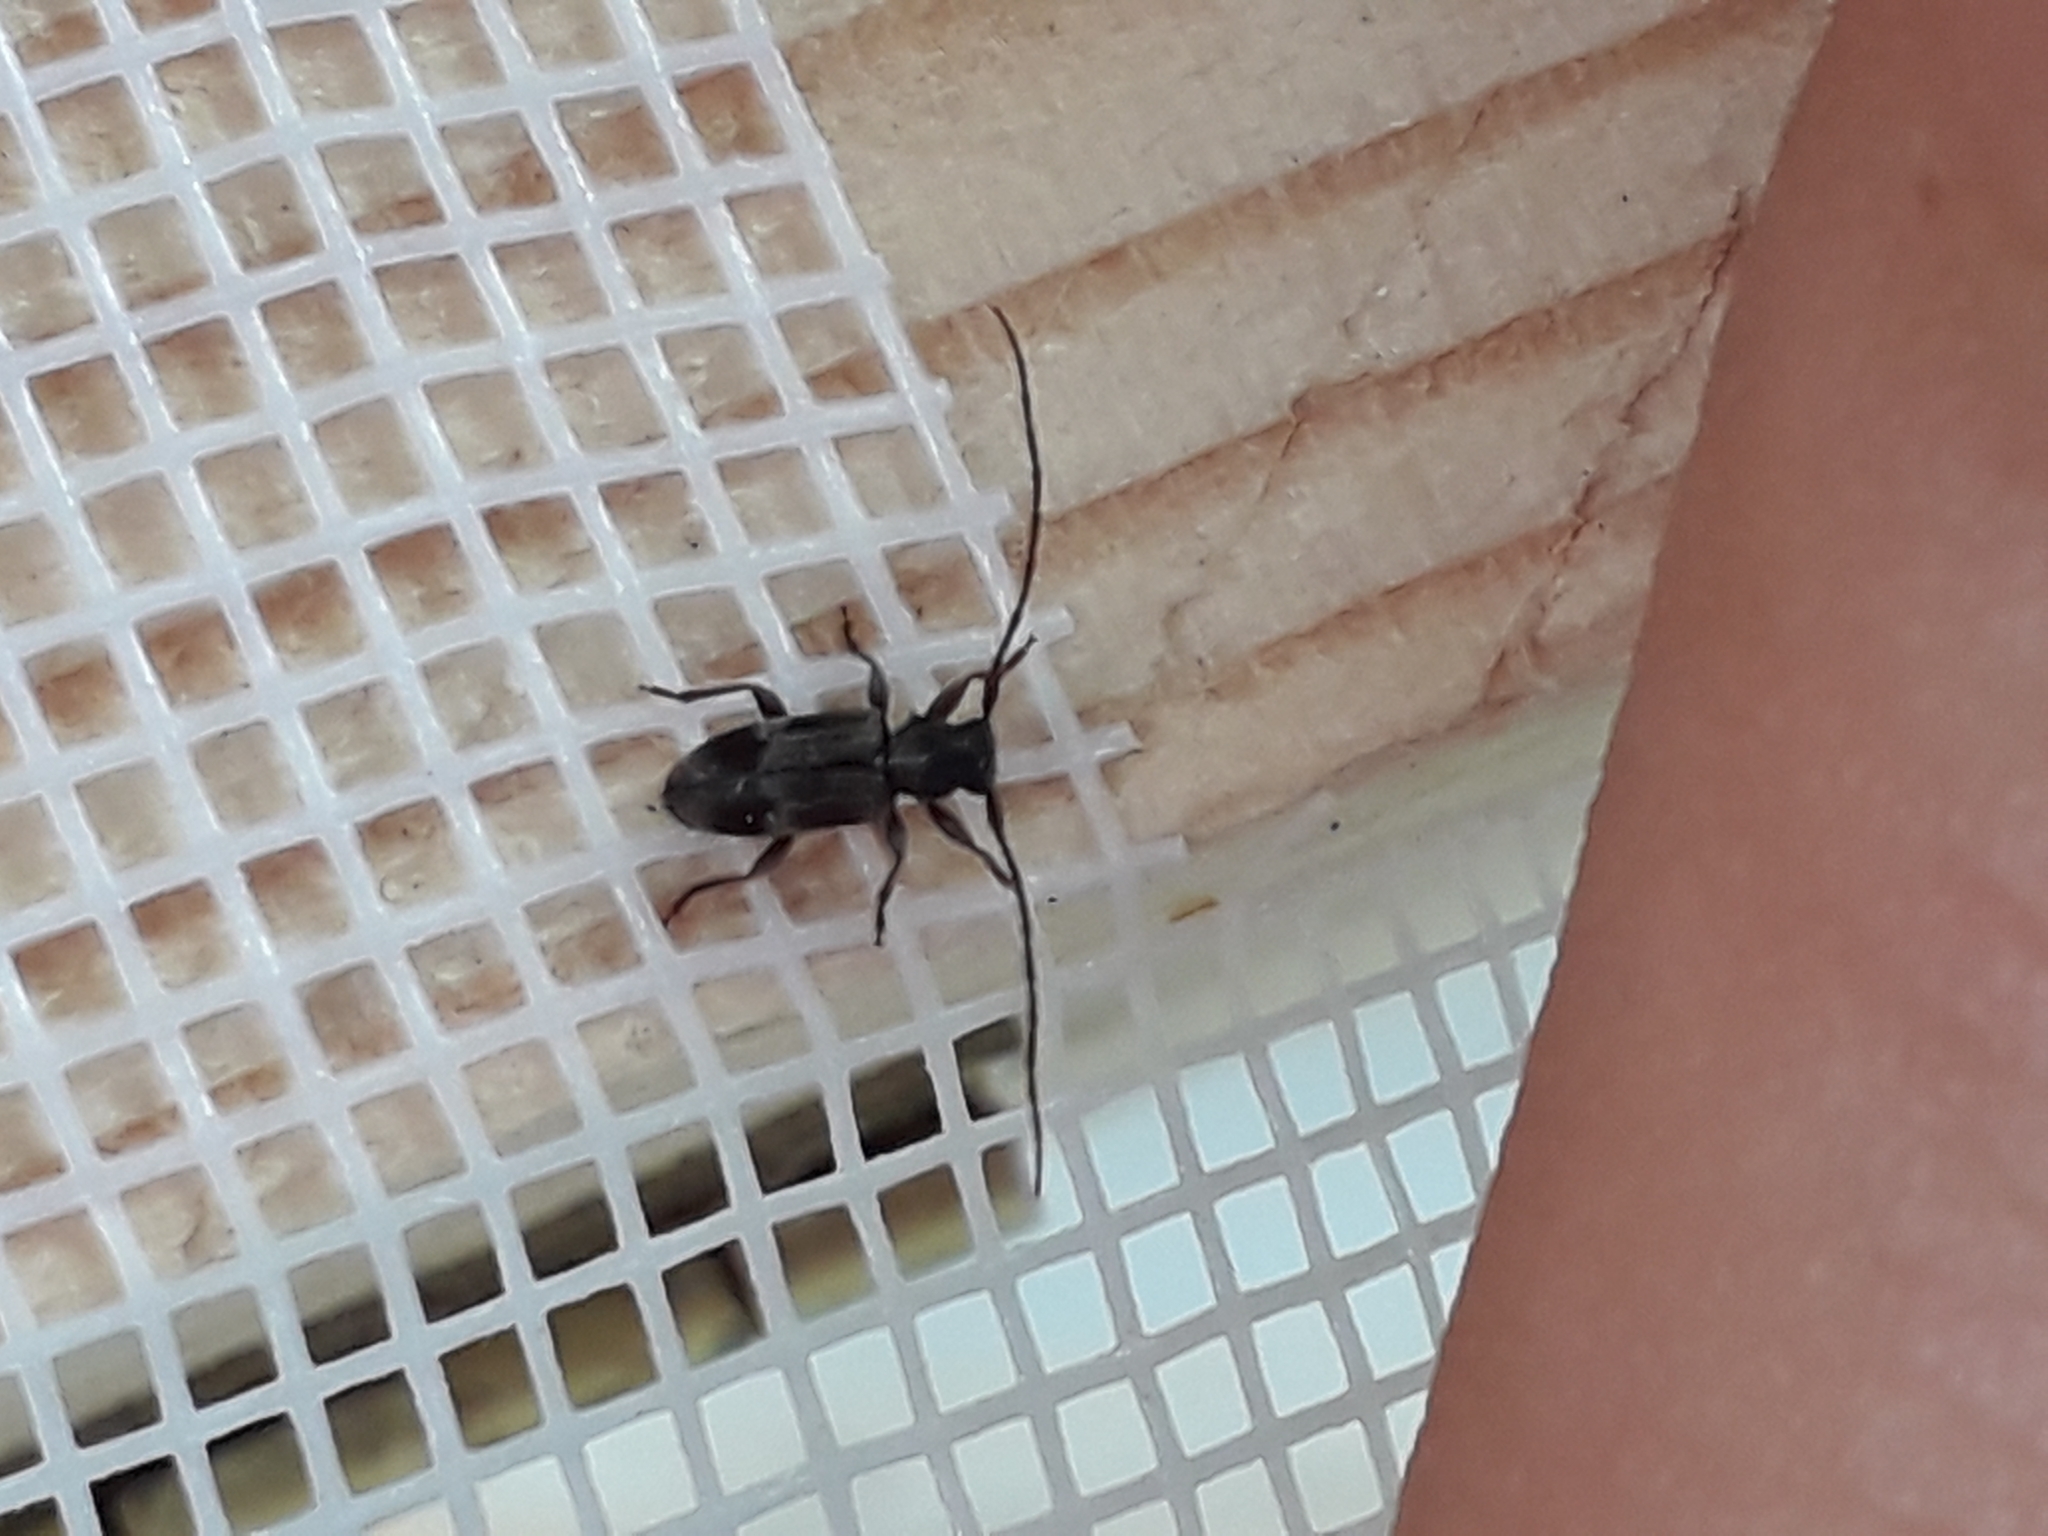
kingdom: Animalia
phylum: Arthropoda
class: Insecta
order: Coleoptera
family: Cerambycidae
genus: Exocentrus
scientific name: Exocentrus lusitanus
